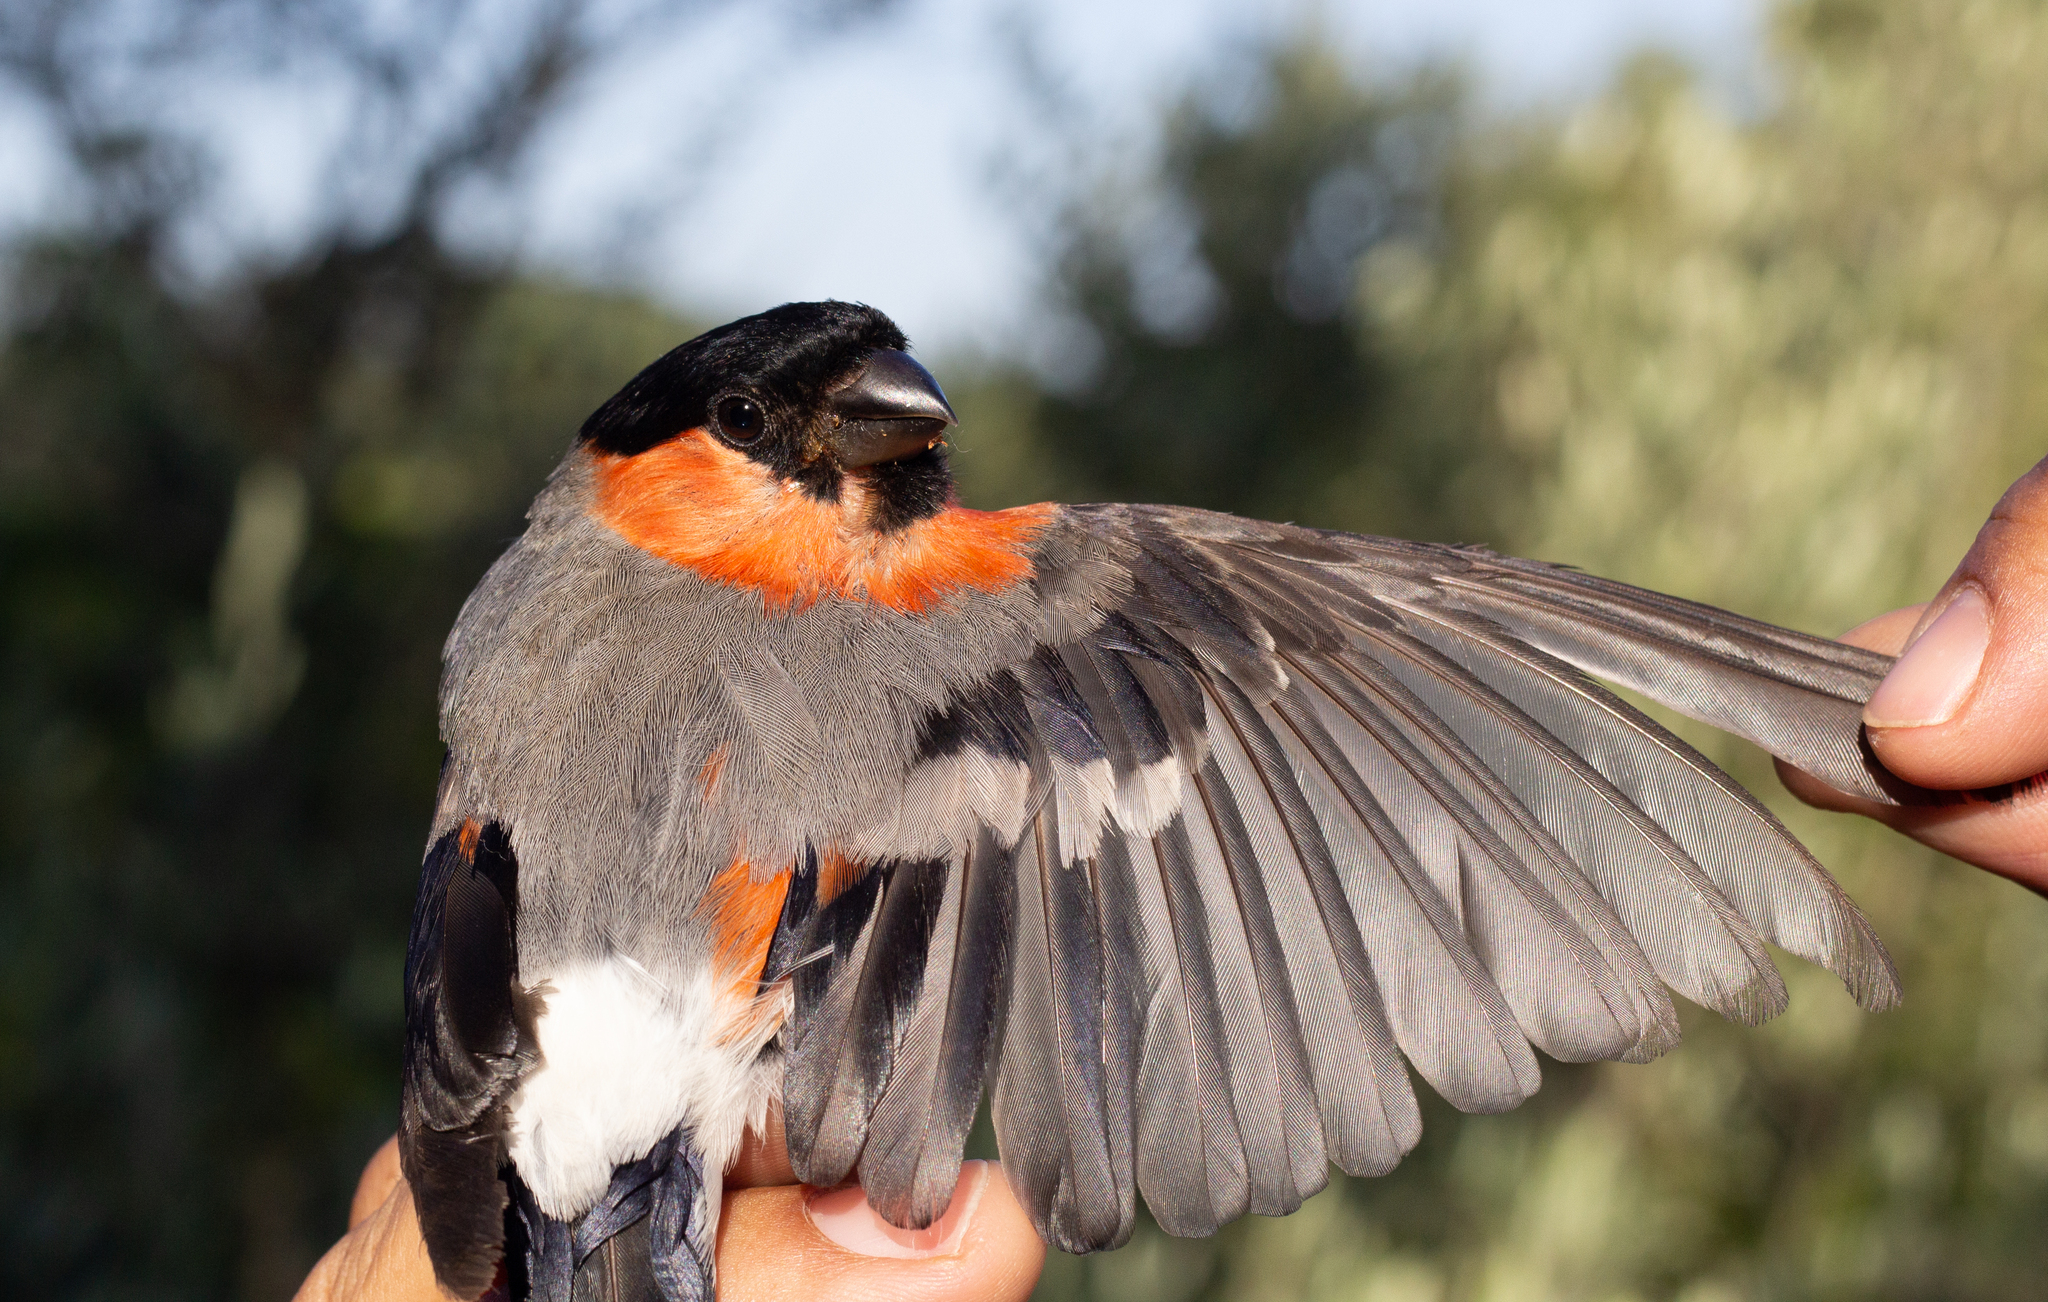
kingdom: Animalia
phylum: Chordata
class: Aves
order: Passeriformes
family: Fringillidae
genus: Pyrrhula
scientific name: Pyrrhula pyrrhula
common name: Eurasian bullfinch
